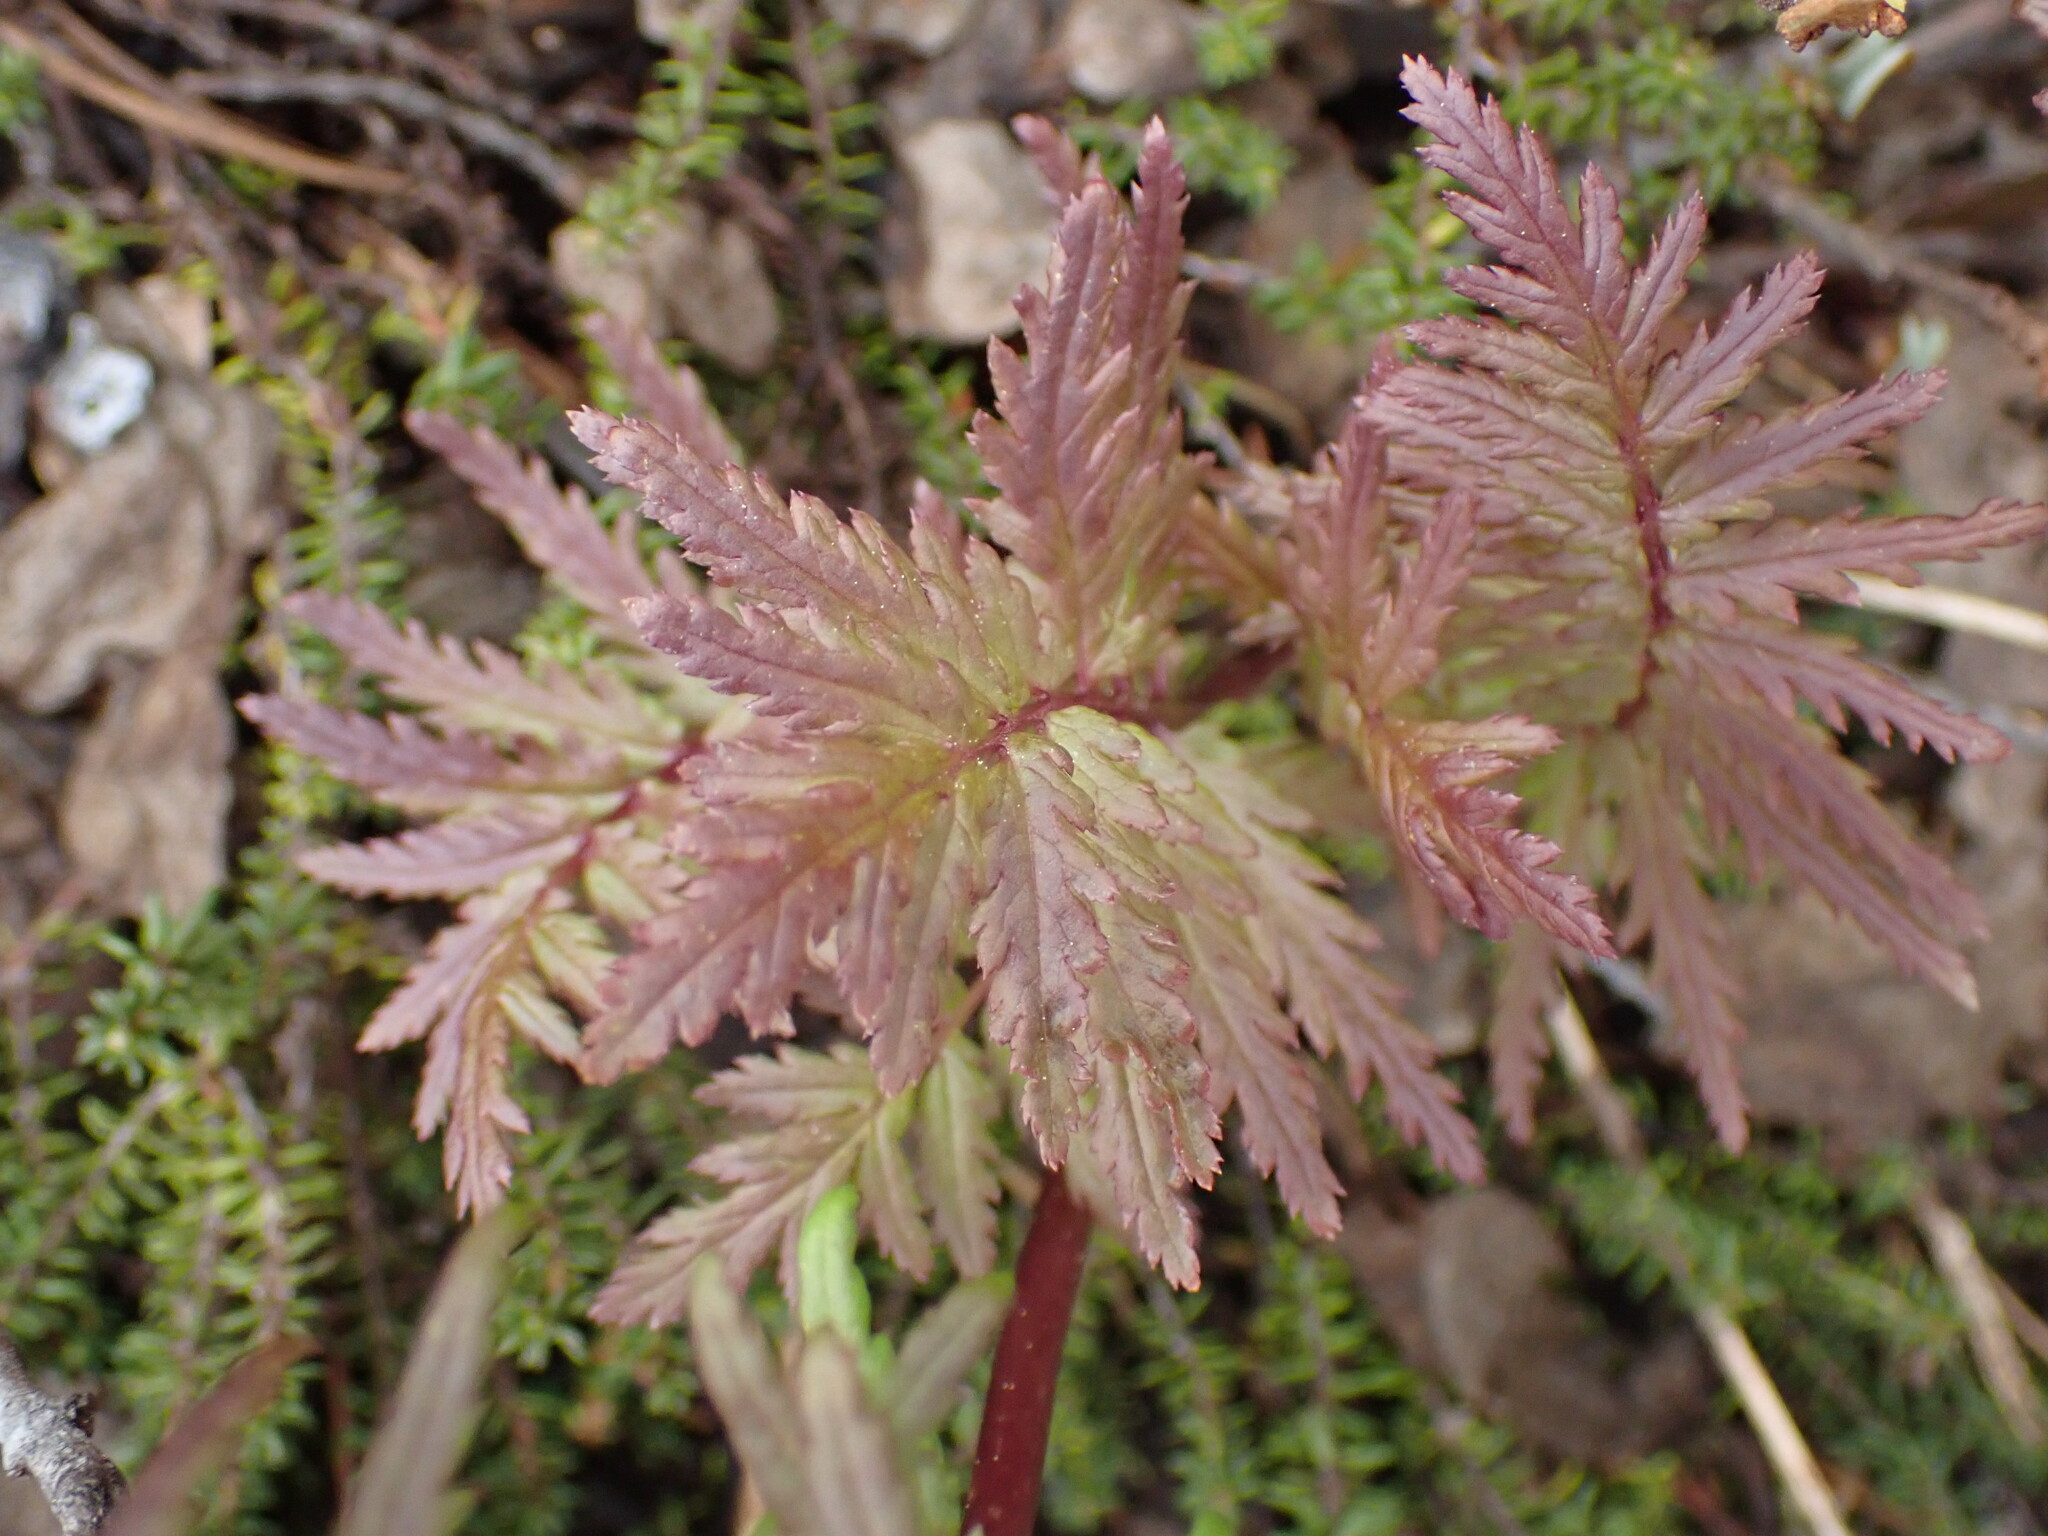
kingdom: Plantae
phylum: Tracheophyta
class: Magnoliopsida
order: Lamiales
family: Orobanchaceae
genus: Pedicularis
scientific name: Pedicularis bracteosa
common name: Bracted lousewort
